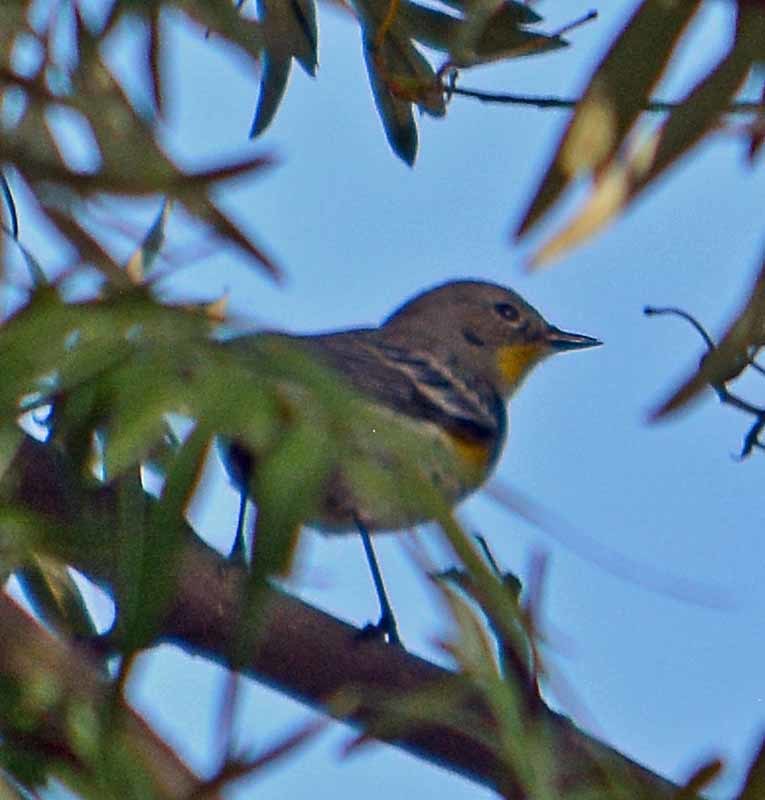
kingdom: Animalia
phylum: Chordata
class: Aves
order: Passeriformes
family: Parulidae
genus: Setophaga
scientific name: Setophaga coronata
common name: Myrtle warbler
